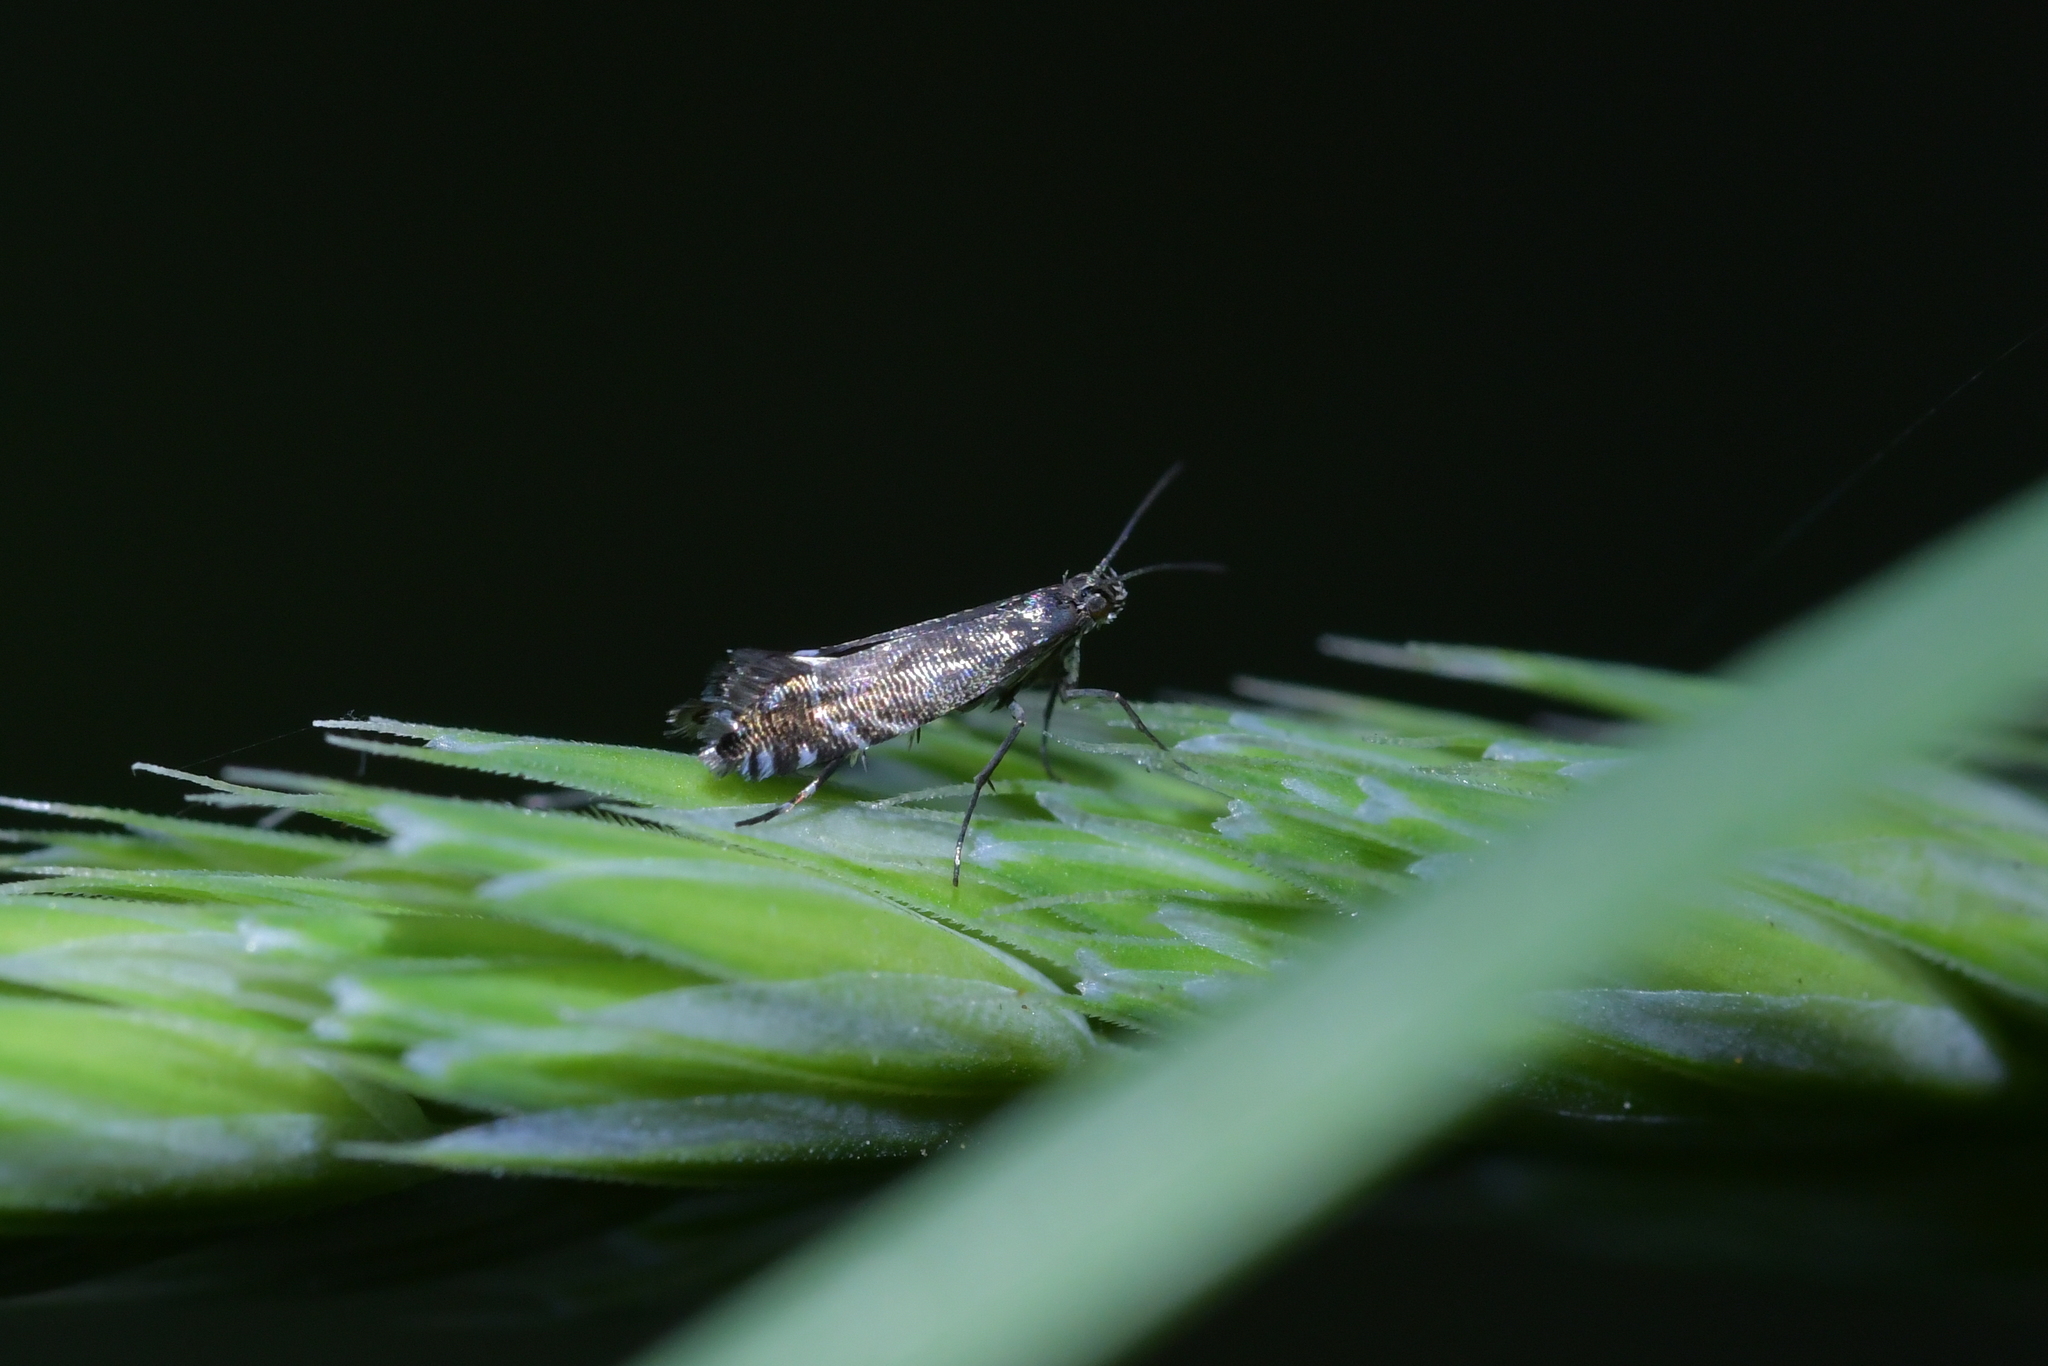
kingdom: Animalia
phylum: Arthropoda
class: Insecta
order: Lepidoptera
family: Glyphipterigidae
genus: Glyphipterix
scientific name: Glyphipterix simpliciella
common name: Cocksfoot moth
